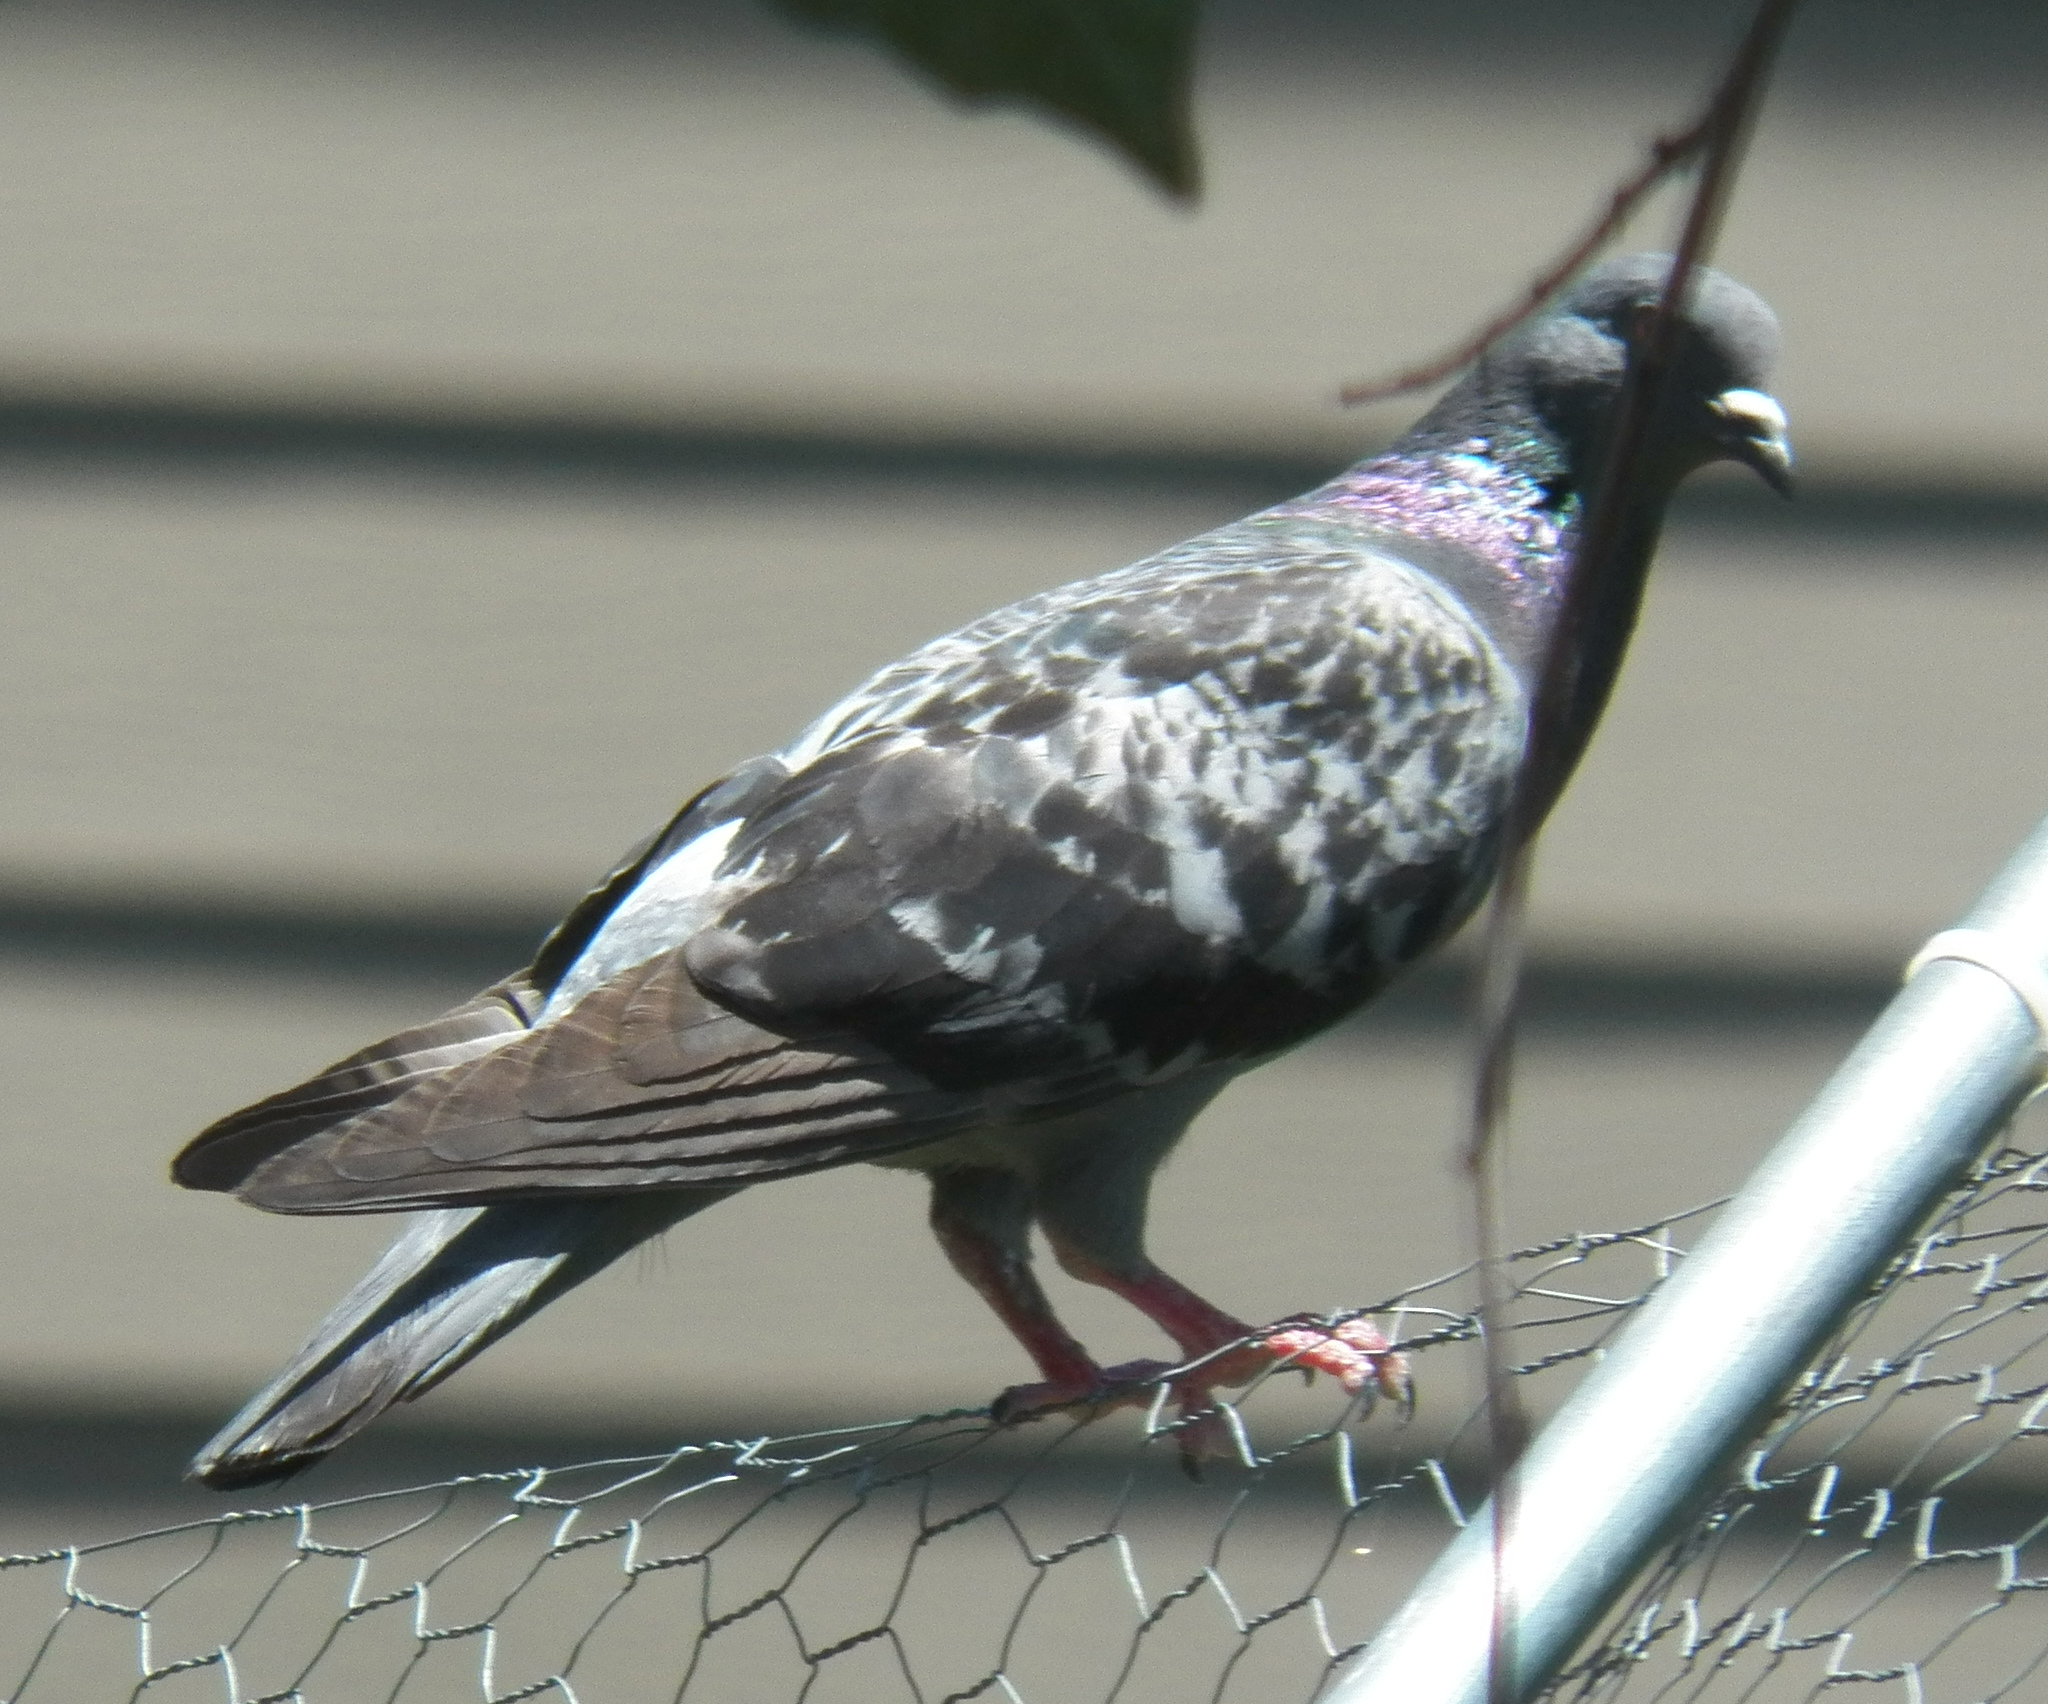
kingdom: Animalia
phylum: Chordata
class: Aves
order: Columbiformes
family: Columbidae
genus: Columba
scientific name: Columba livia
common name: Rock pigeon
